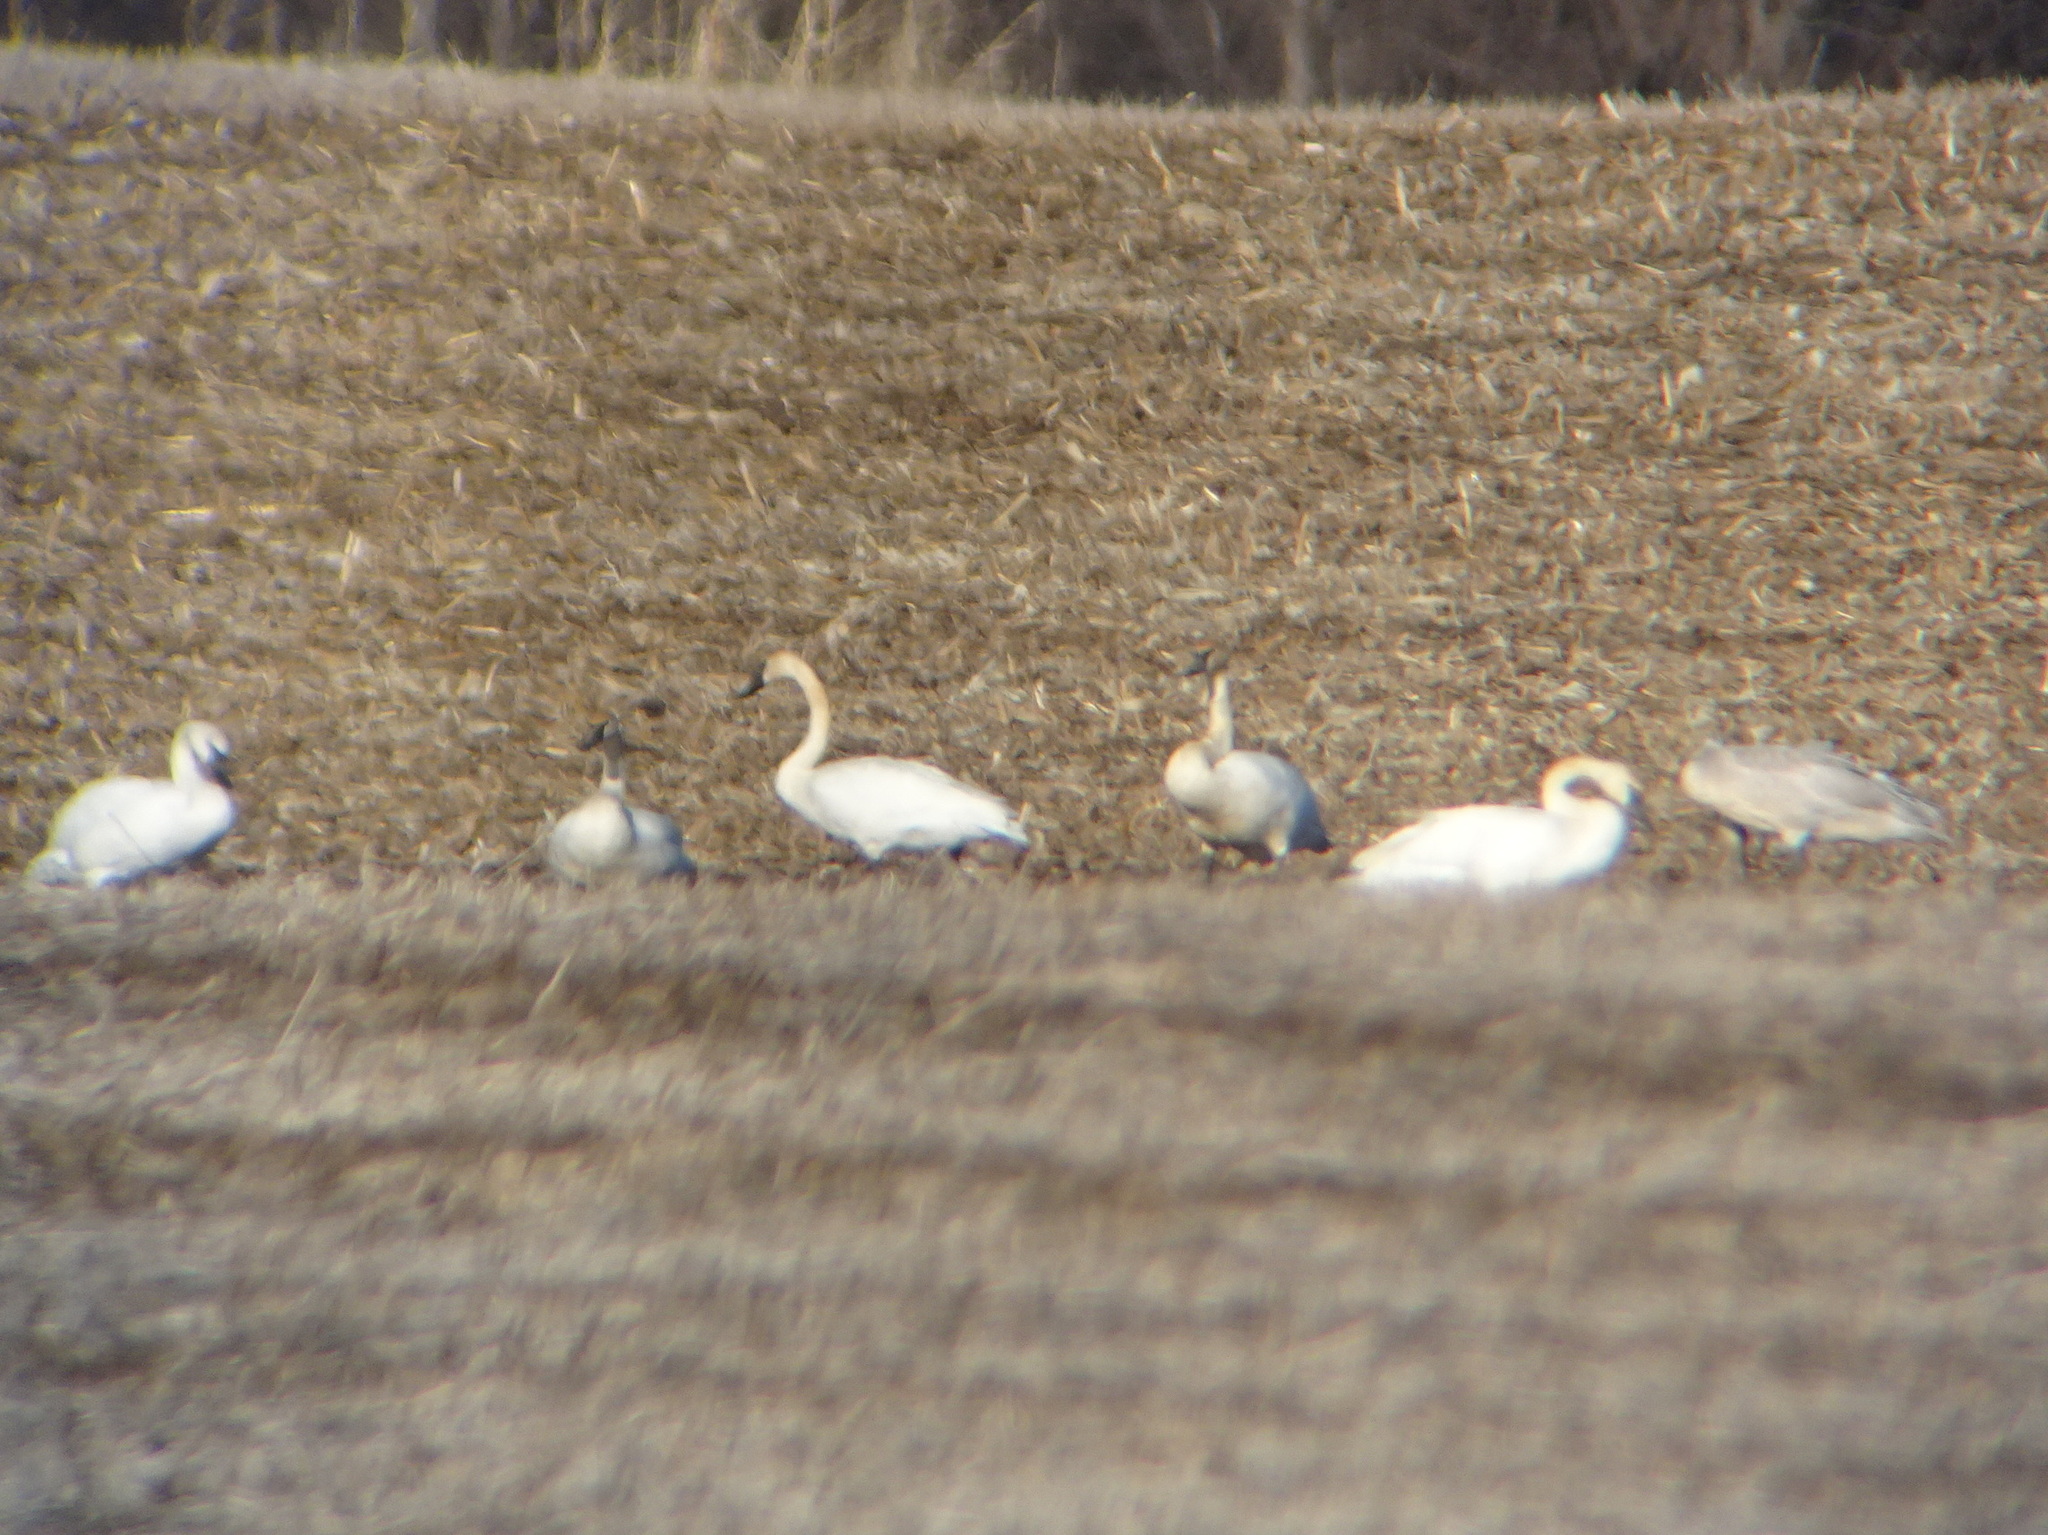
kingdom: Animalia
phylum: Chordata
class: Aves
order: Anseriformes
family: Anatidae
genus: Cygnus
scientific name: Cygnus buccinator
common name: Trumpeter swan
